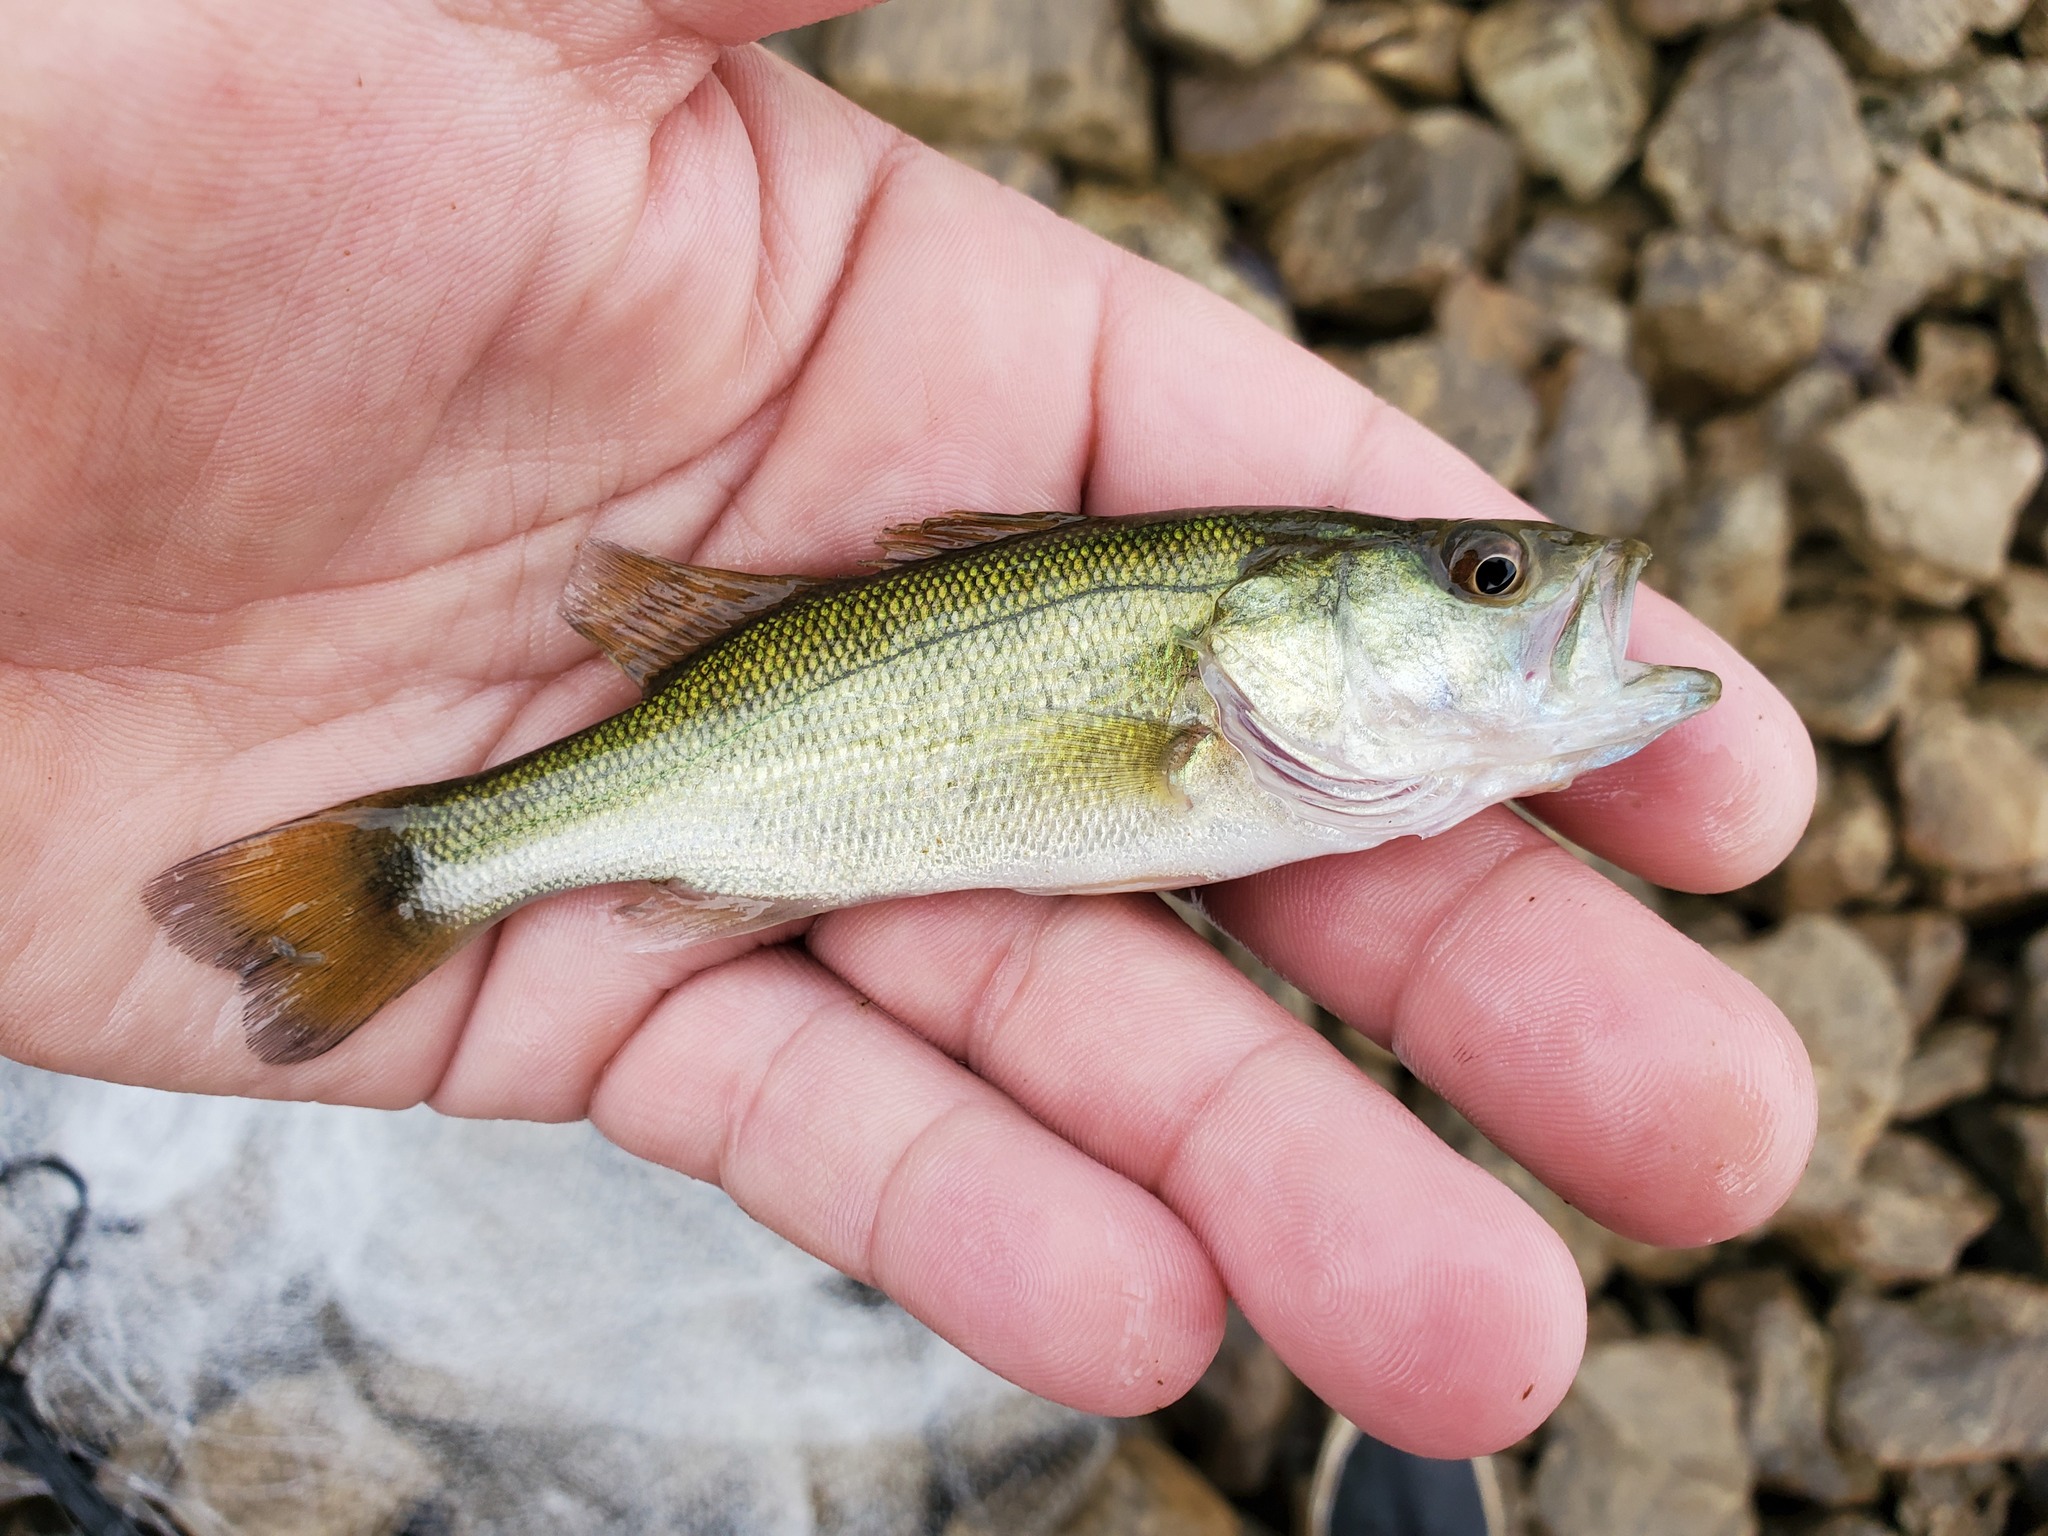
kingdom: Animalia
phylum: Chordata
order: Perciformes
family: Centrarchidae
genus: Micropterus
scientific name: Micropterus
